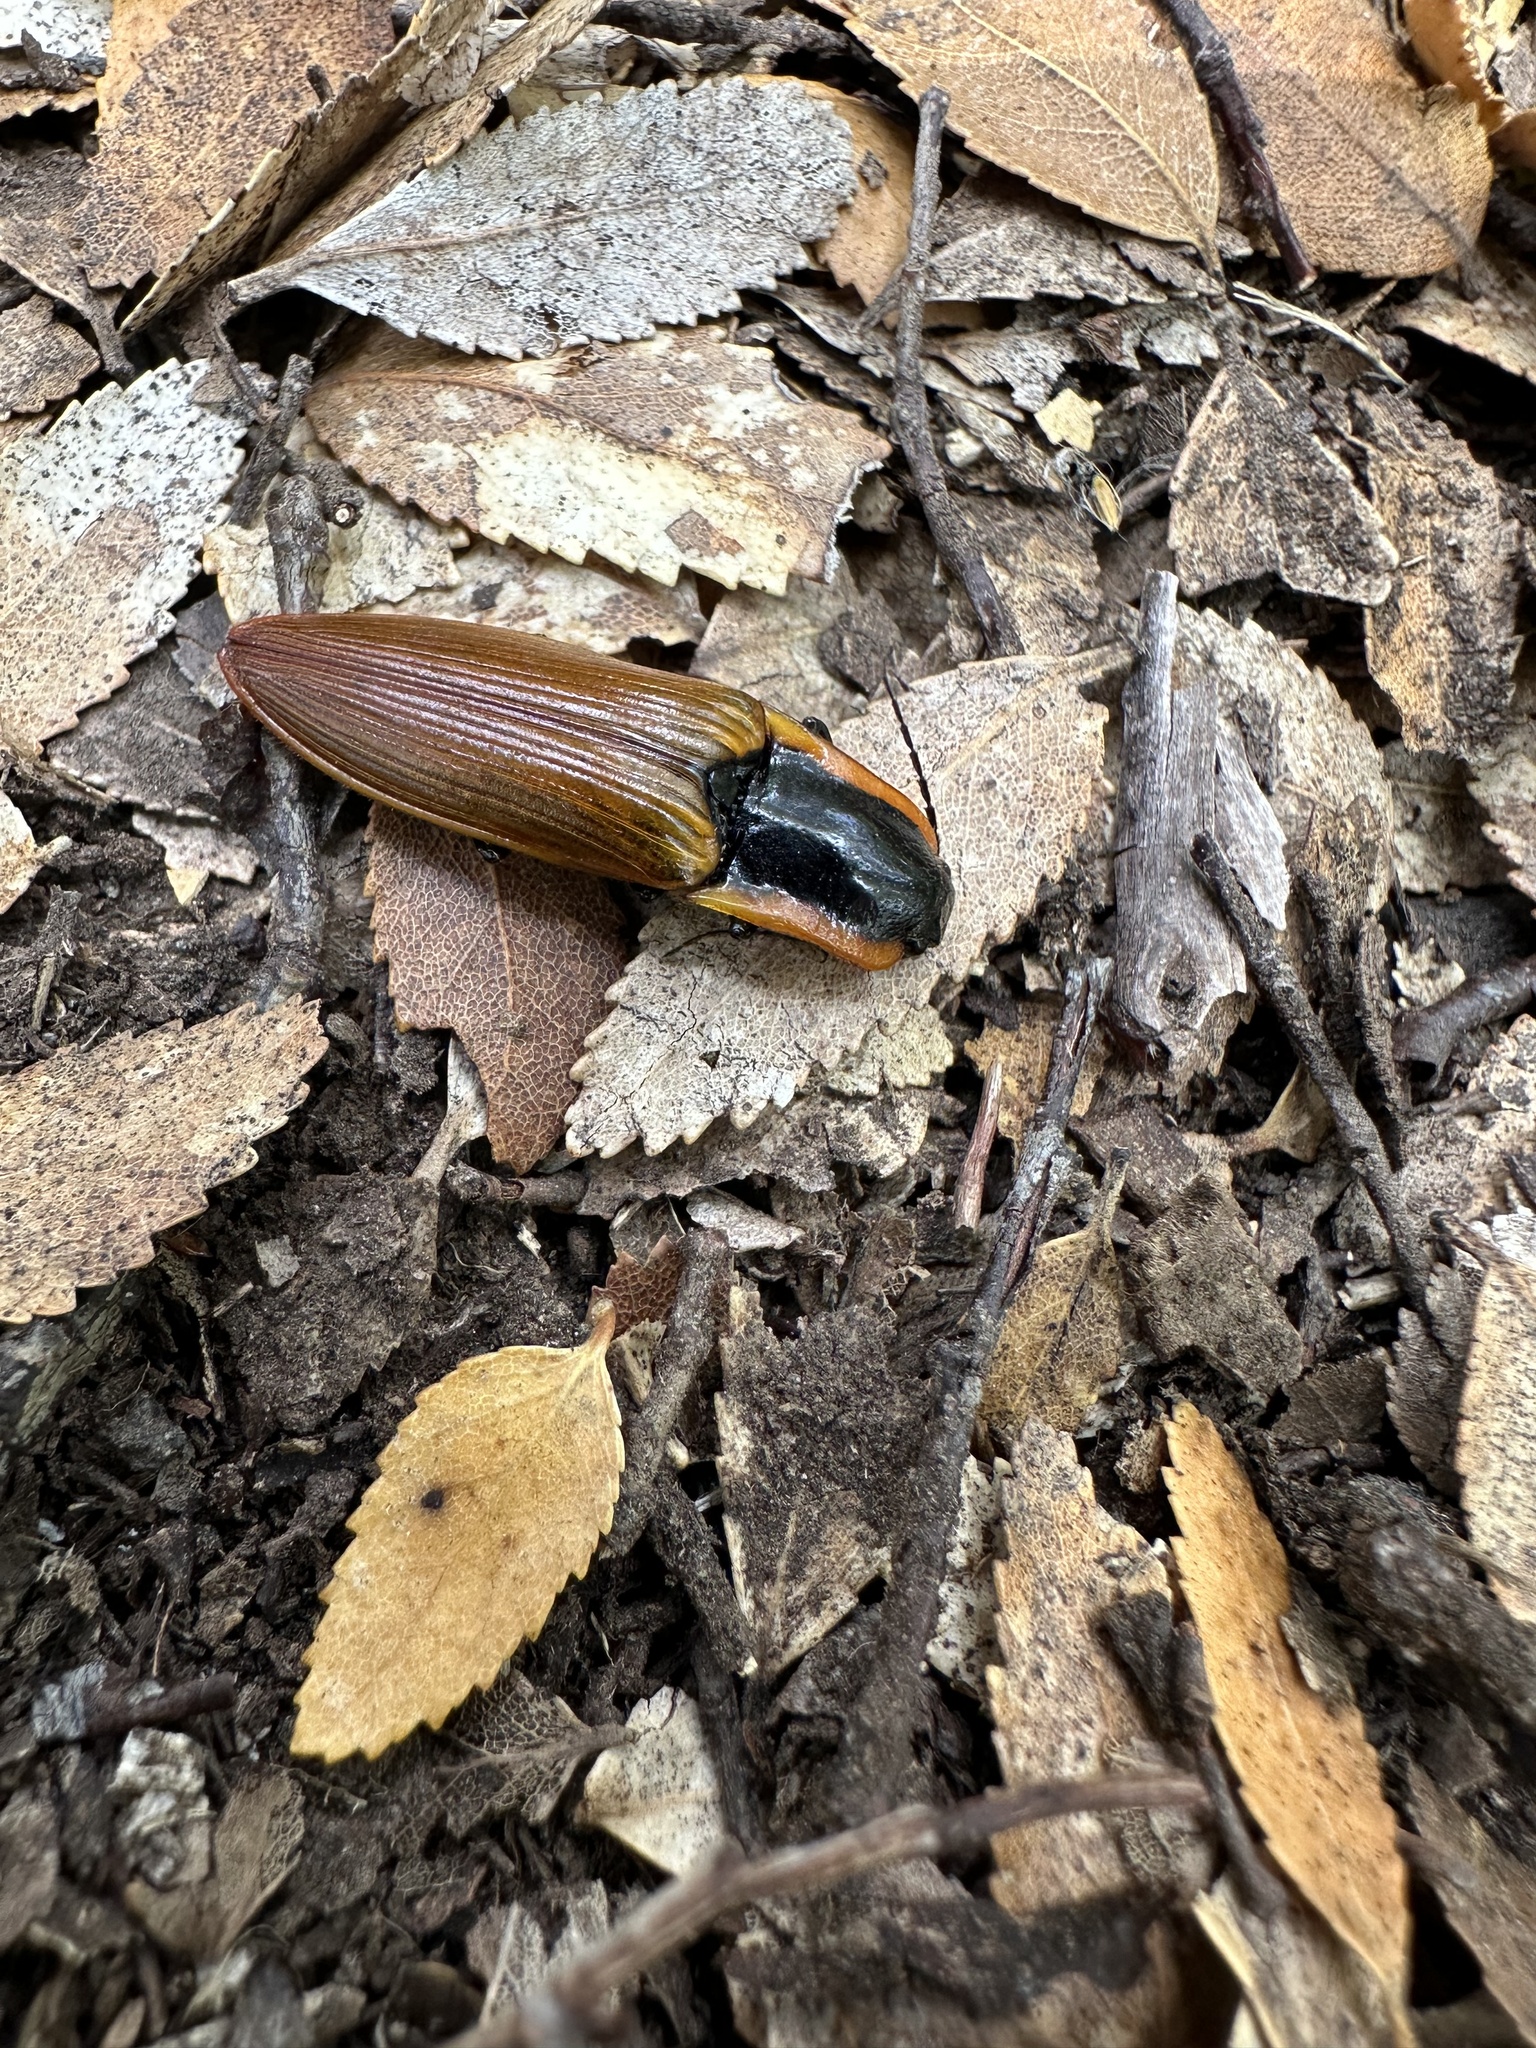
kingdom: Animalia
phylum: Arthropoda
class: Insecta
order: Coleoptera
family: Elateridae
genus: Semiotus
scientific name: Semiotus
